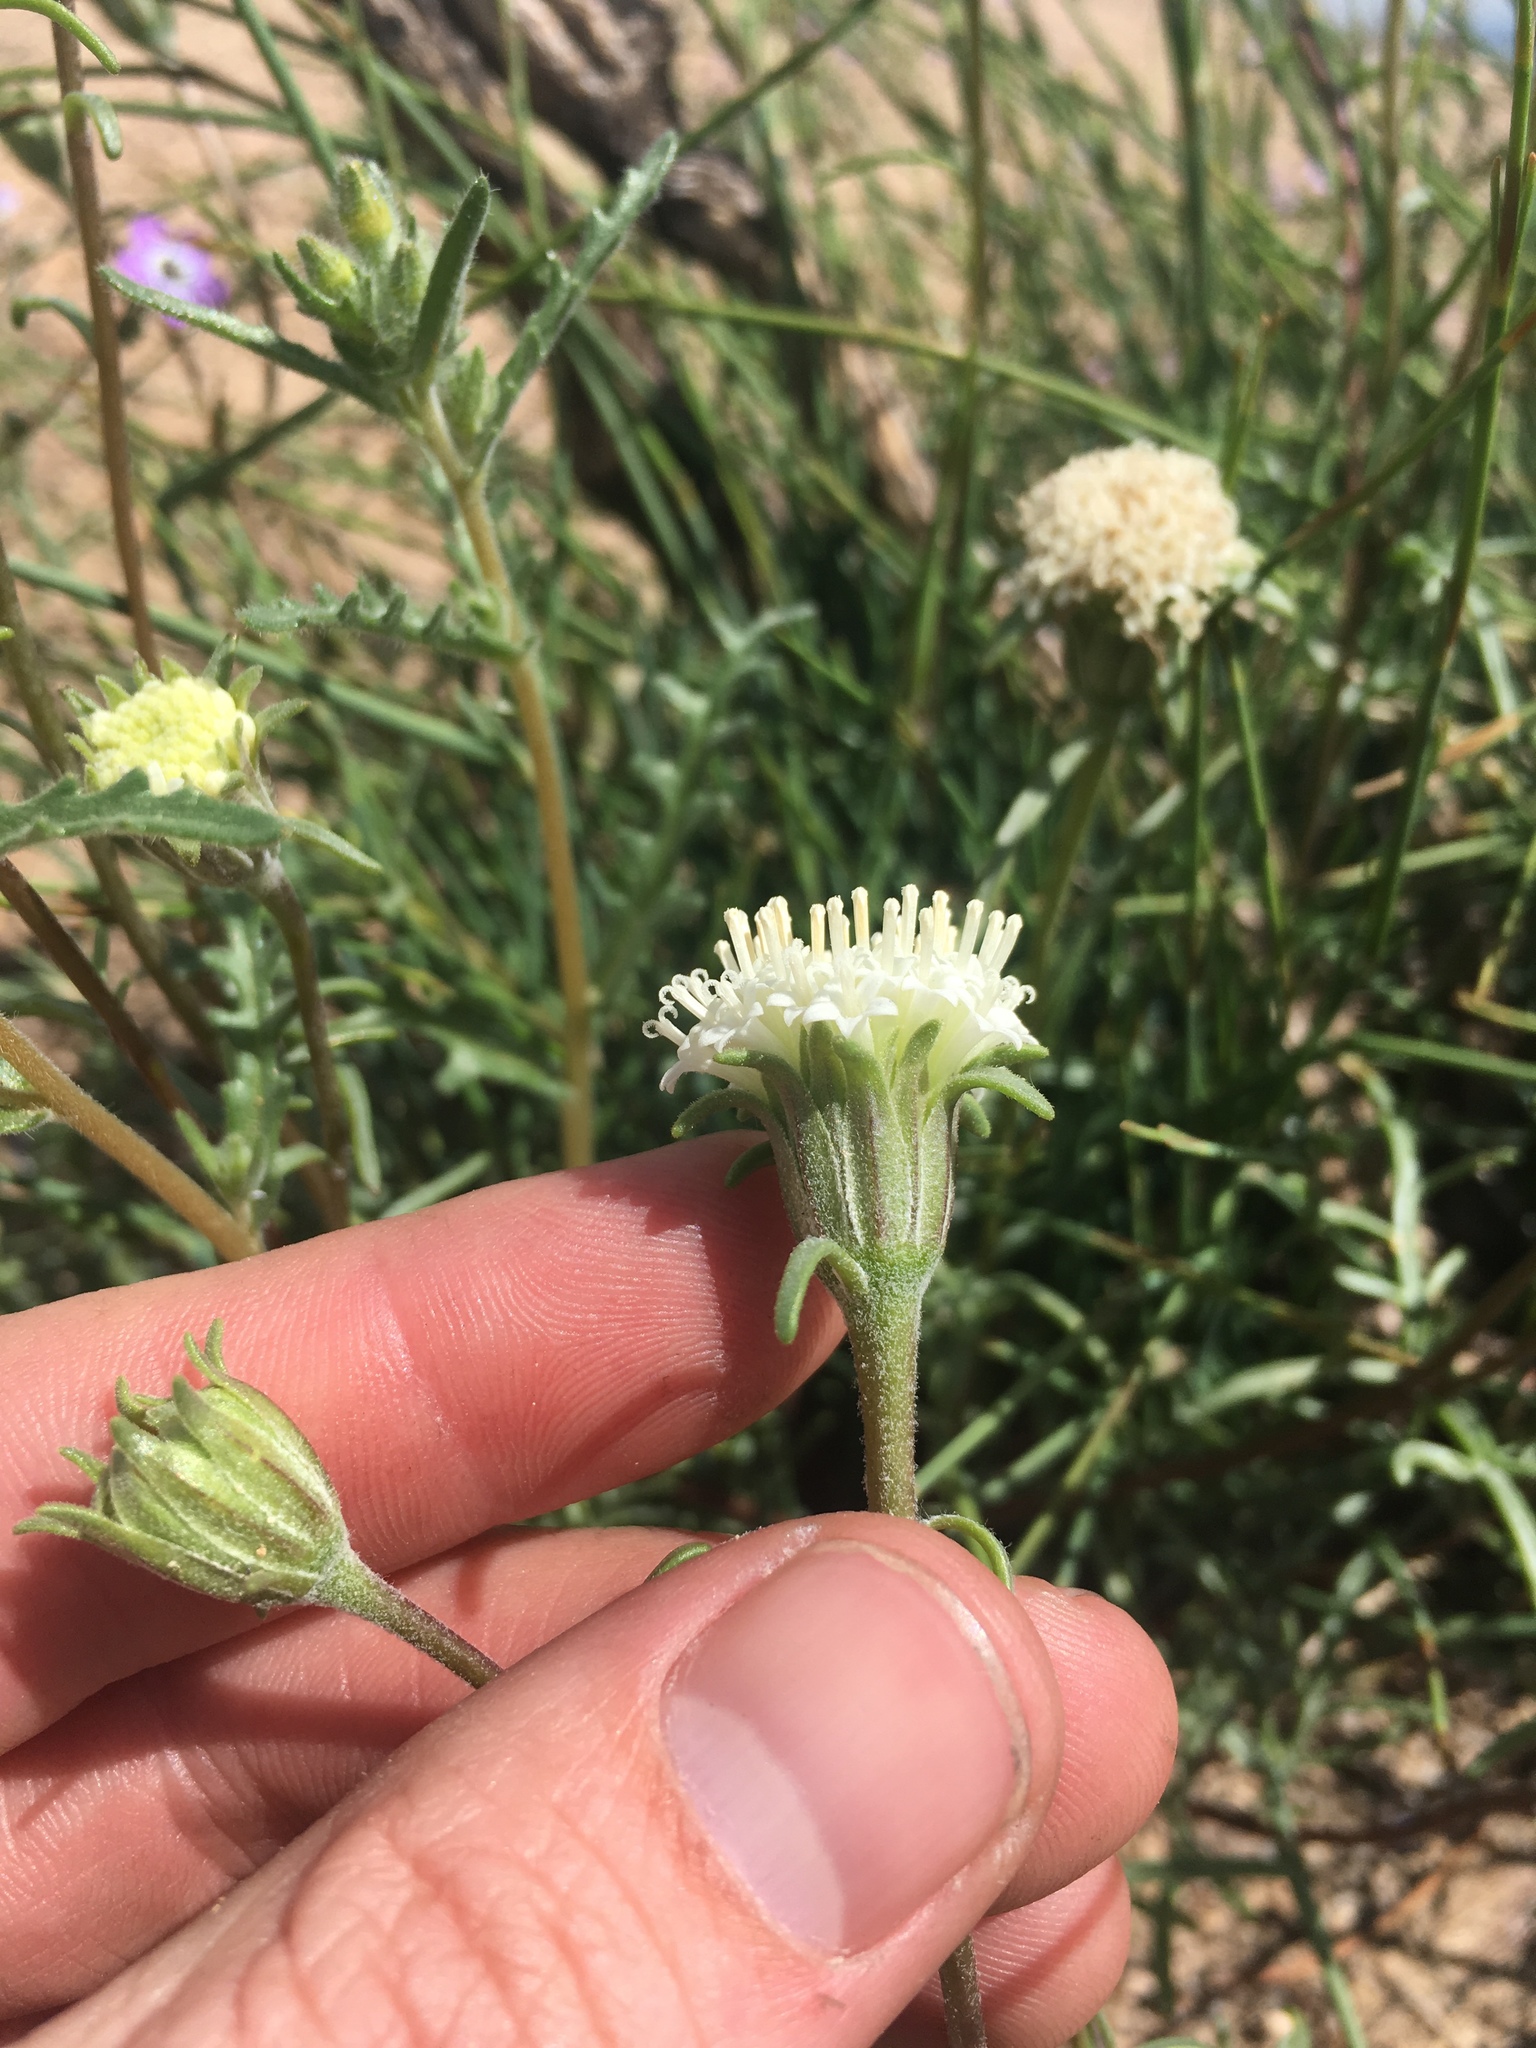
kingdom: Plantae
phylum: Tracheophyta
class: Magnoliopsida
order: Asterales
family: Asteraceae
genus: Chaenactis
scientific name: Chaenactis xantiana
